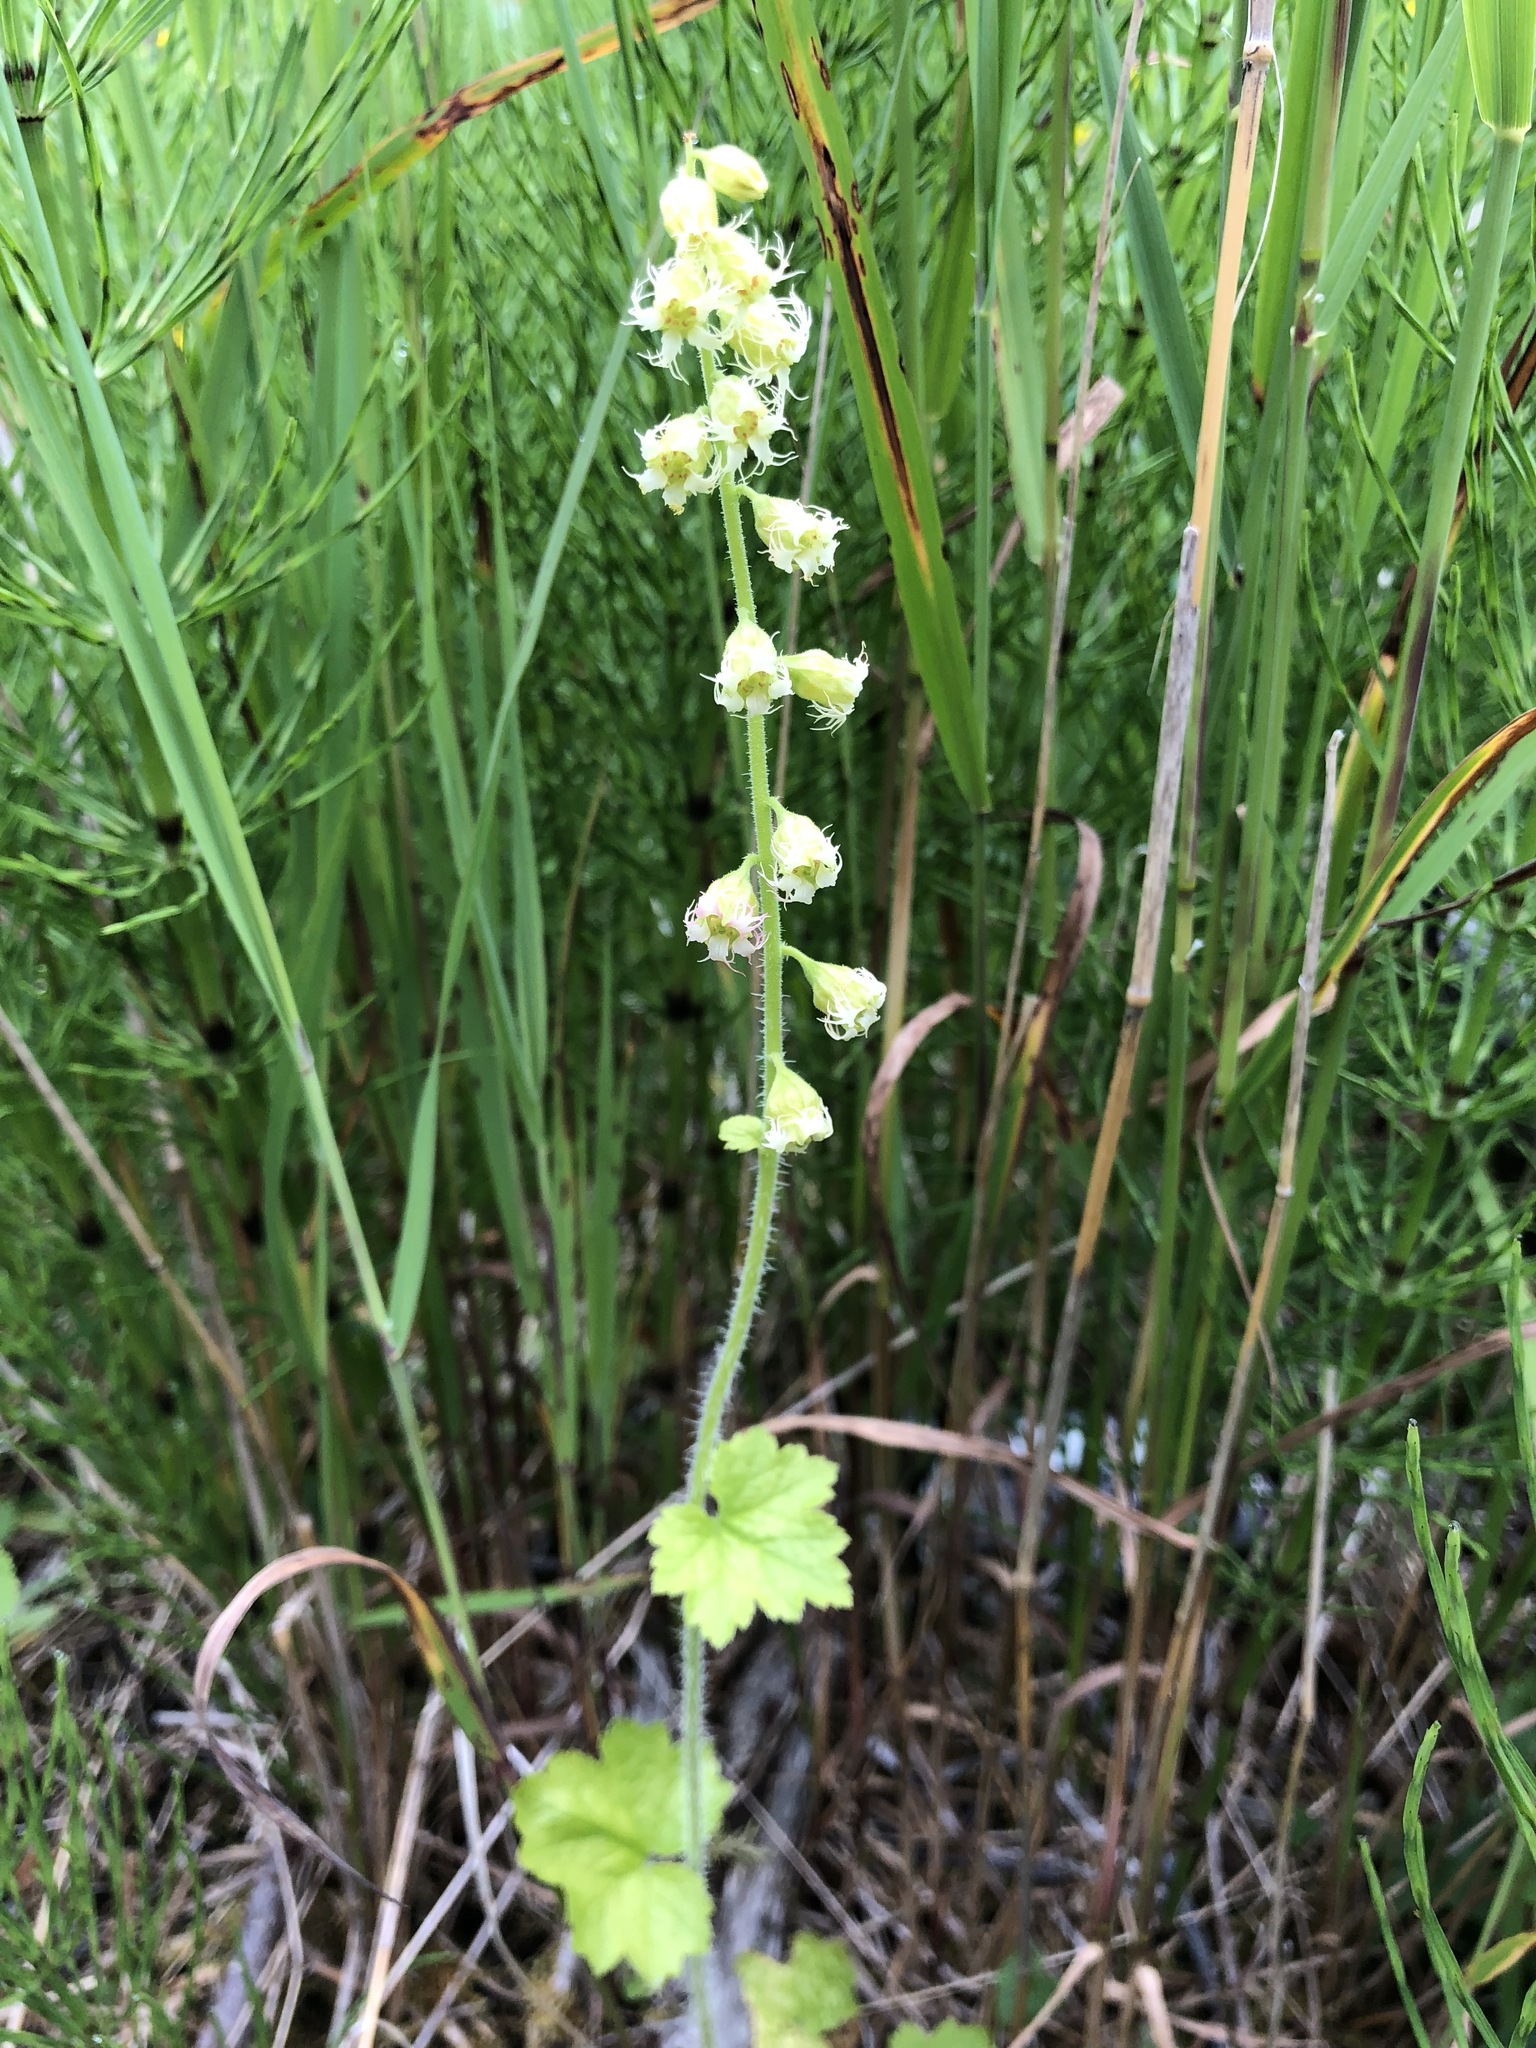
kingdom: Plantae
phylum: Tracheophyta
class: Magnoliopsida
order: Saxifragales
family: Saxifragaceae
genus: Tellima
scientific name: Tellima grandiflora
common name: Fringecups
